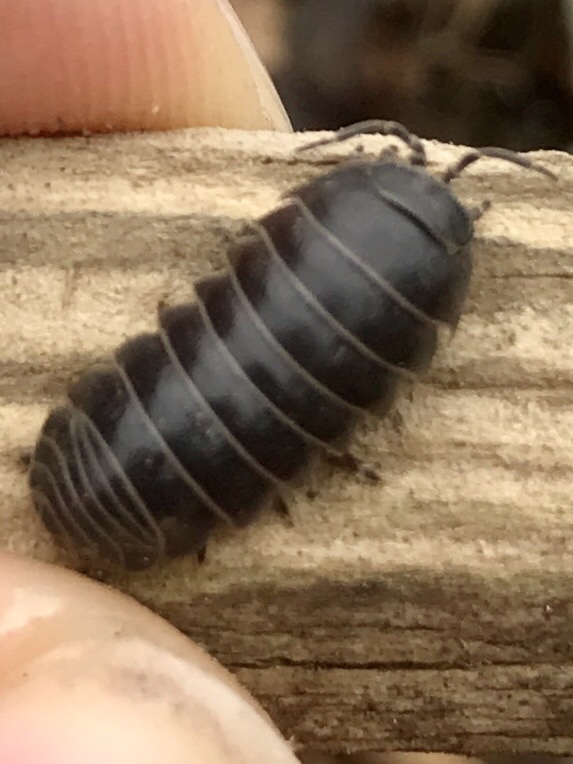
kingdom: Animalia
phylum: Arthropoda
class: Malacostraca
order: Isopoda
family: Armadillidiidae
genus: Armadillidium
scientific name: Armadillidium vulgare
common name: Common pill woodlouse
